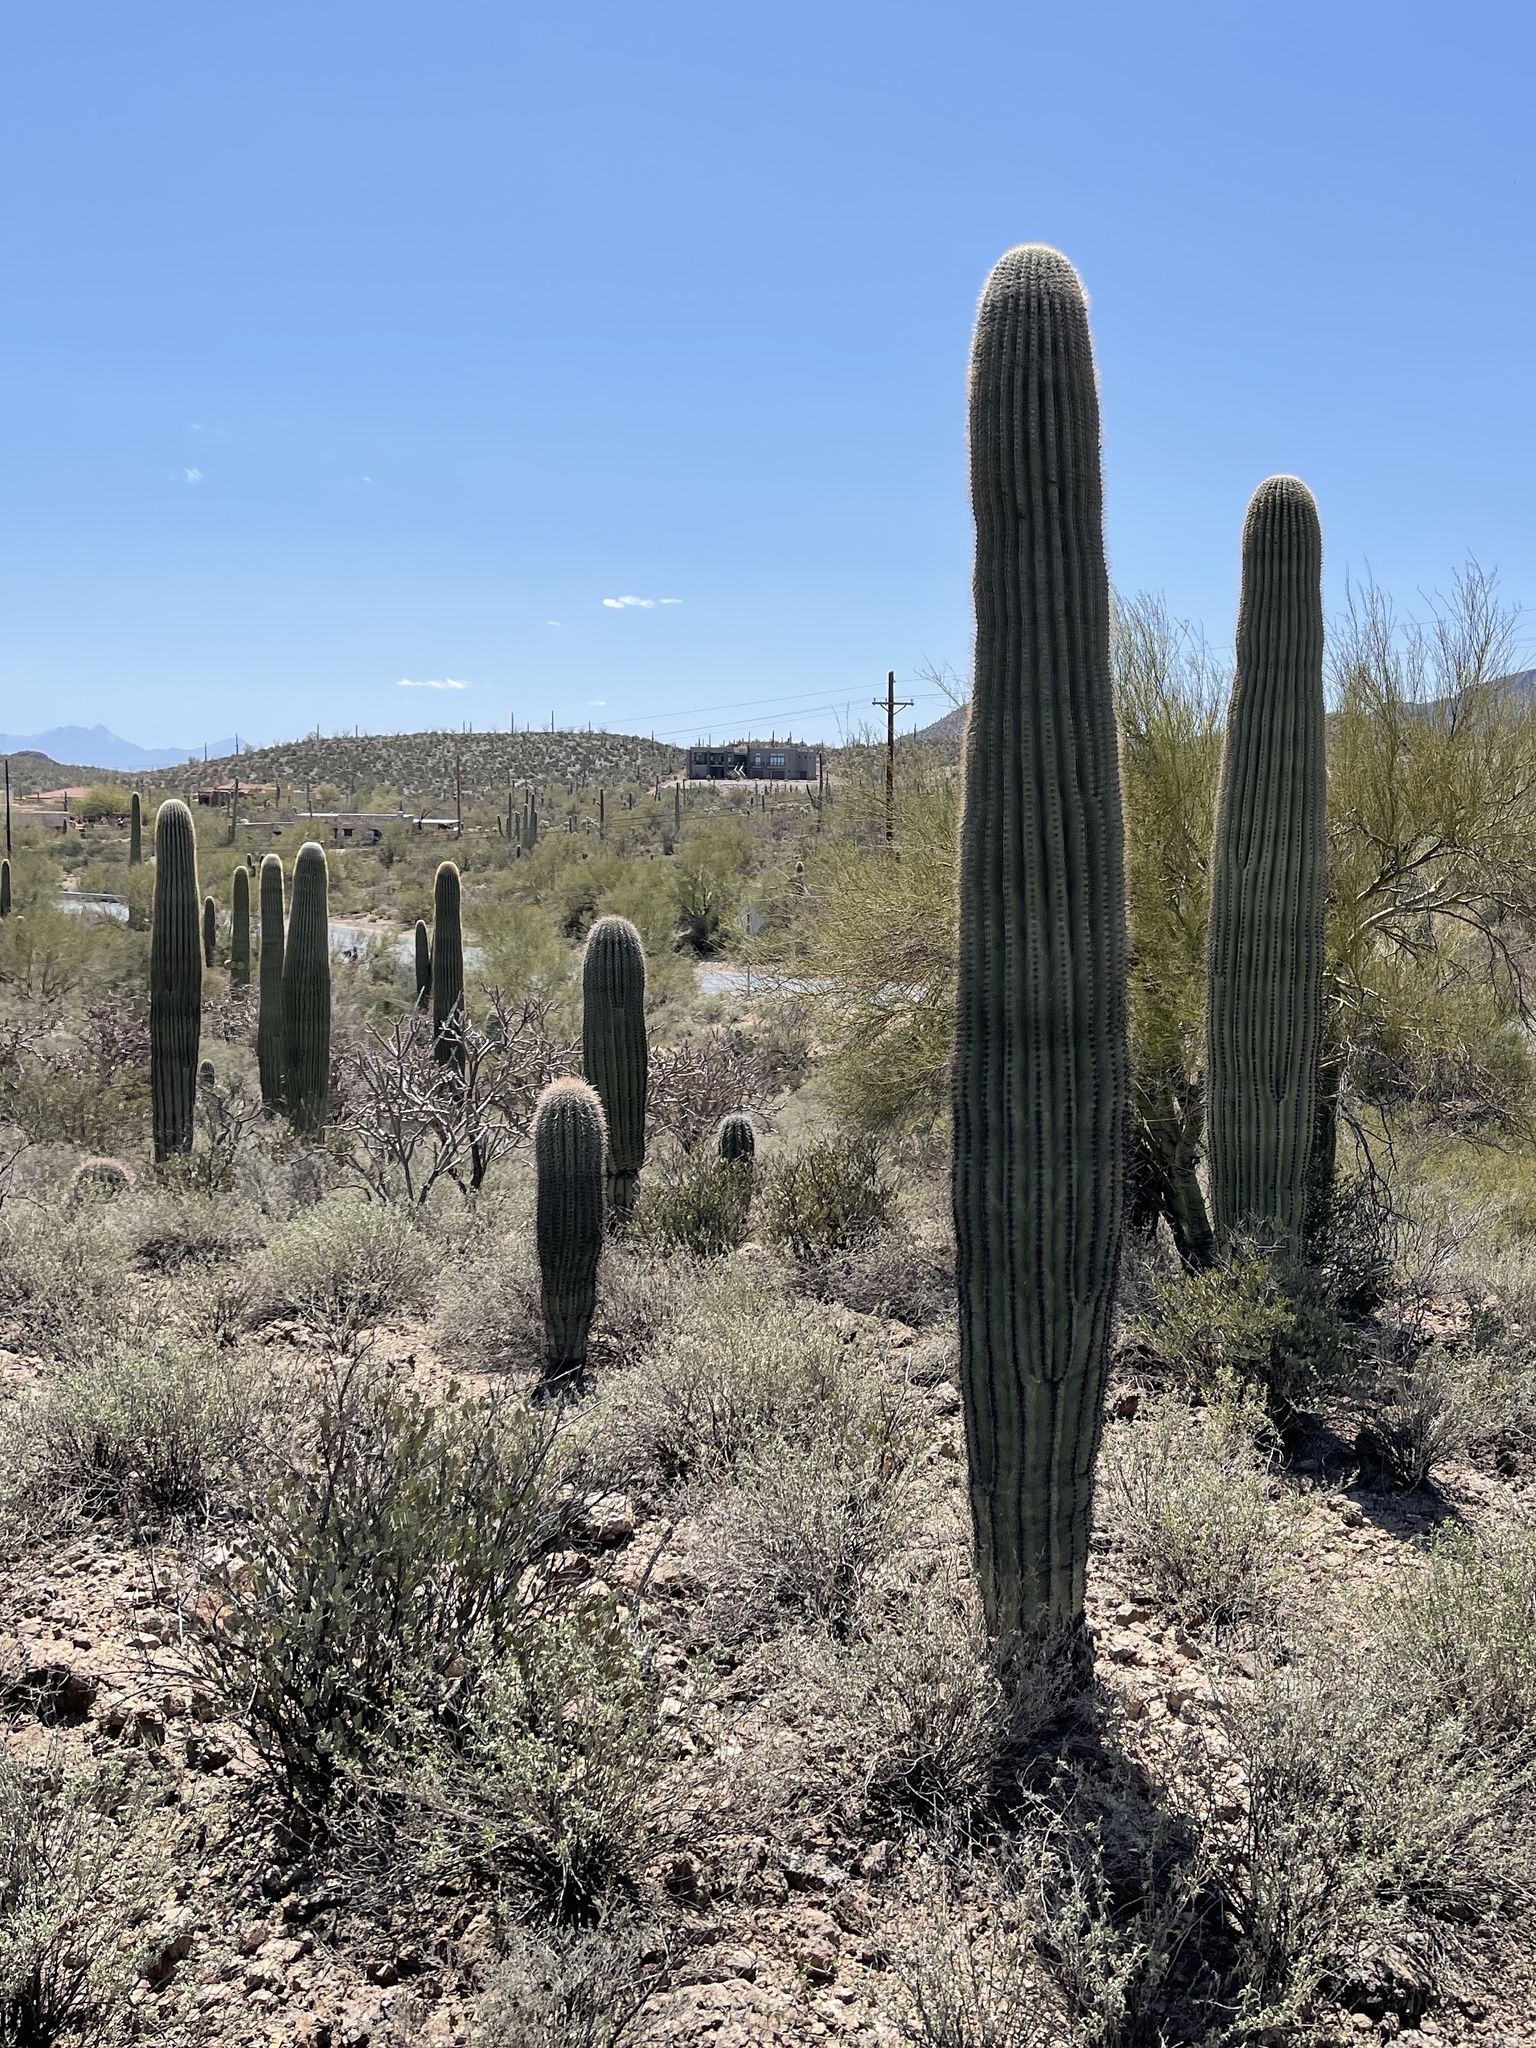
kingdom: Plantae
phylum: Tracheophyta
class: Magnoliopsida
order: Caryophyllales
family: Cactaceae
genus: Carnegiea
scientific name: Carnegiea gigantea
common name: Saguaro
